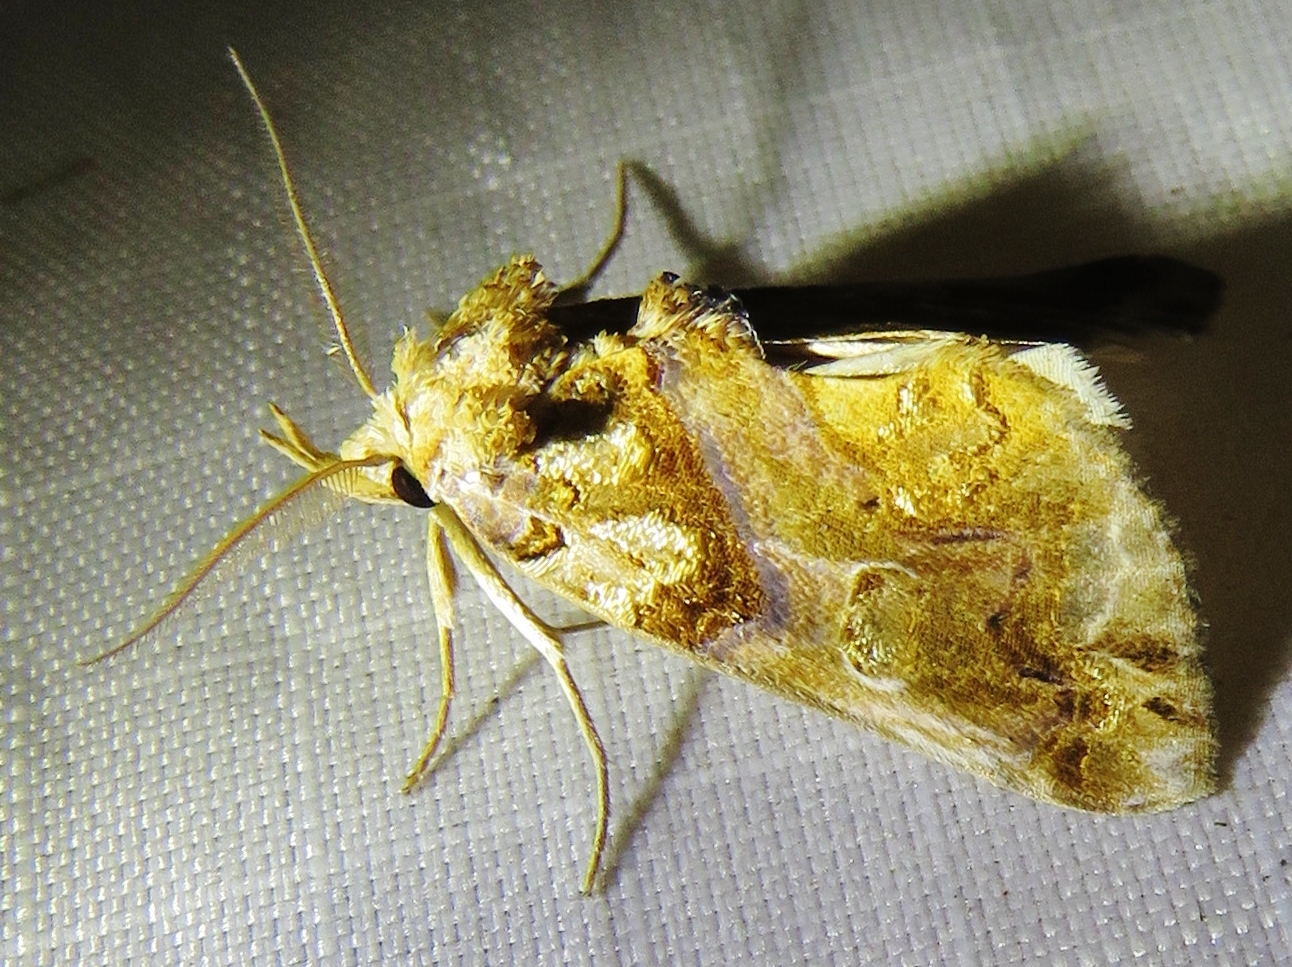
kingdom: Animalia
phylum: Arthropoda
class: Insecta
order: Lepidoptera
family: Erebidae
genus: Plusiodonta
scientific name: Plusiodonta compressipalpis
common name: Moonseed moth
